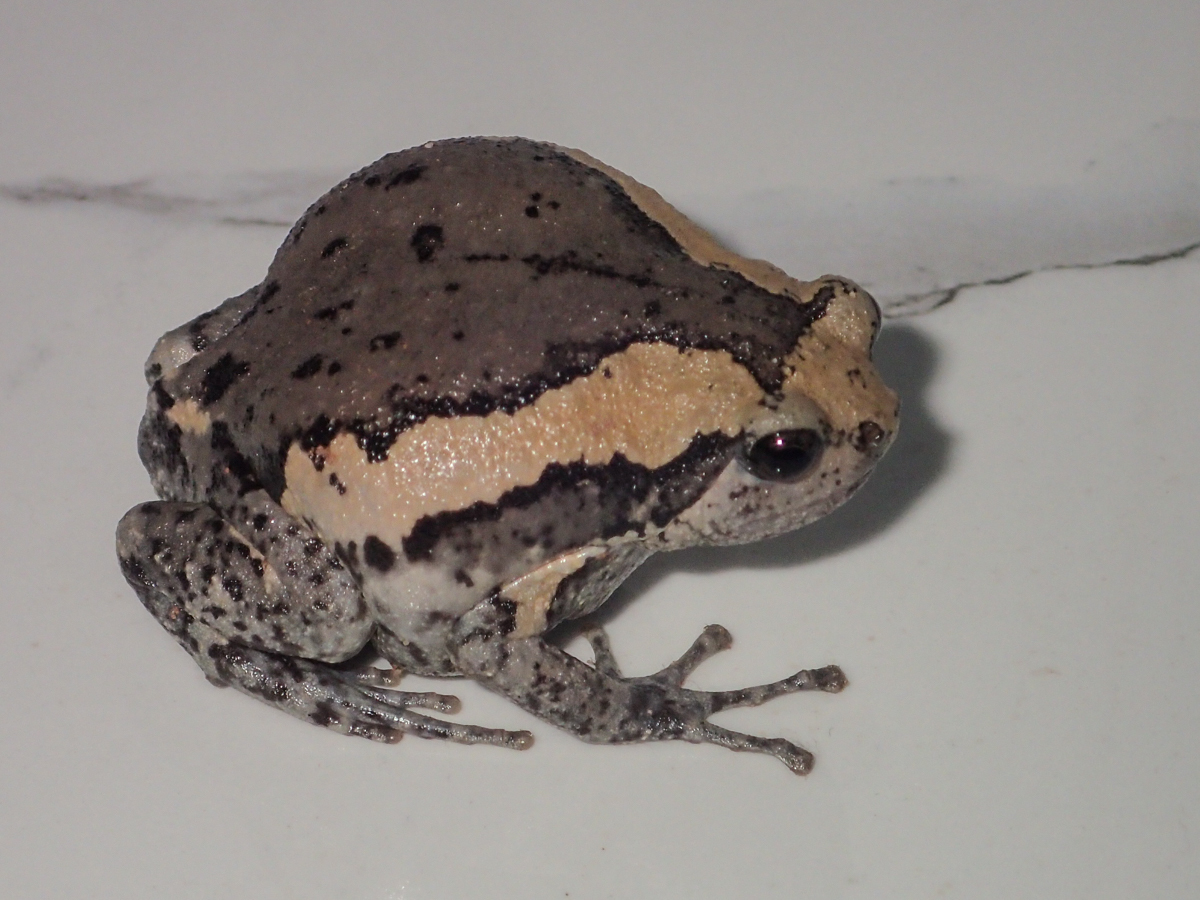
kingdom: Animalia
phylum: Chordata
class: Amphibia
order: Anura
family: Microhylidae
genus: Kaloula
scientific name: Kaloula pulchra
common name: Common,banded bullfrog
